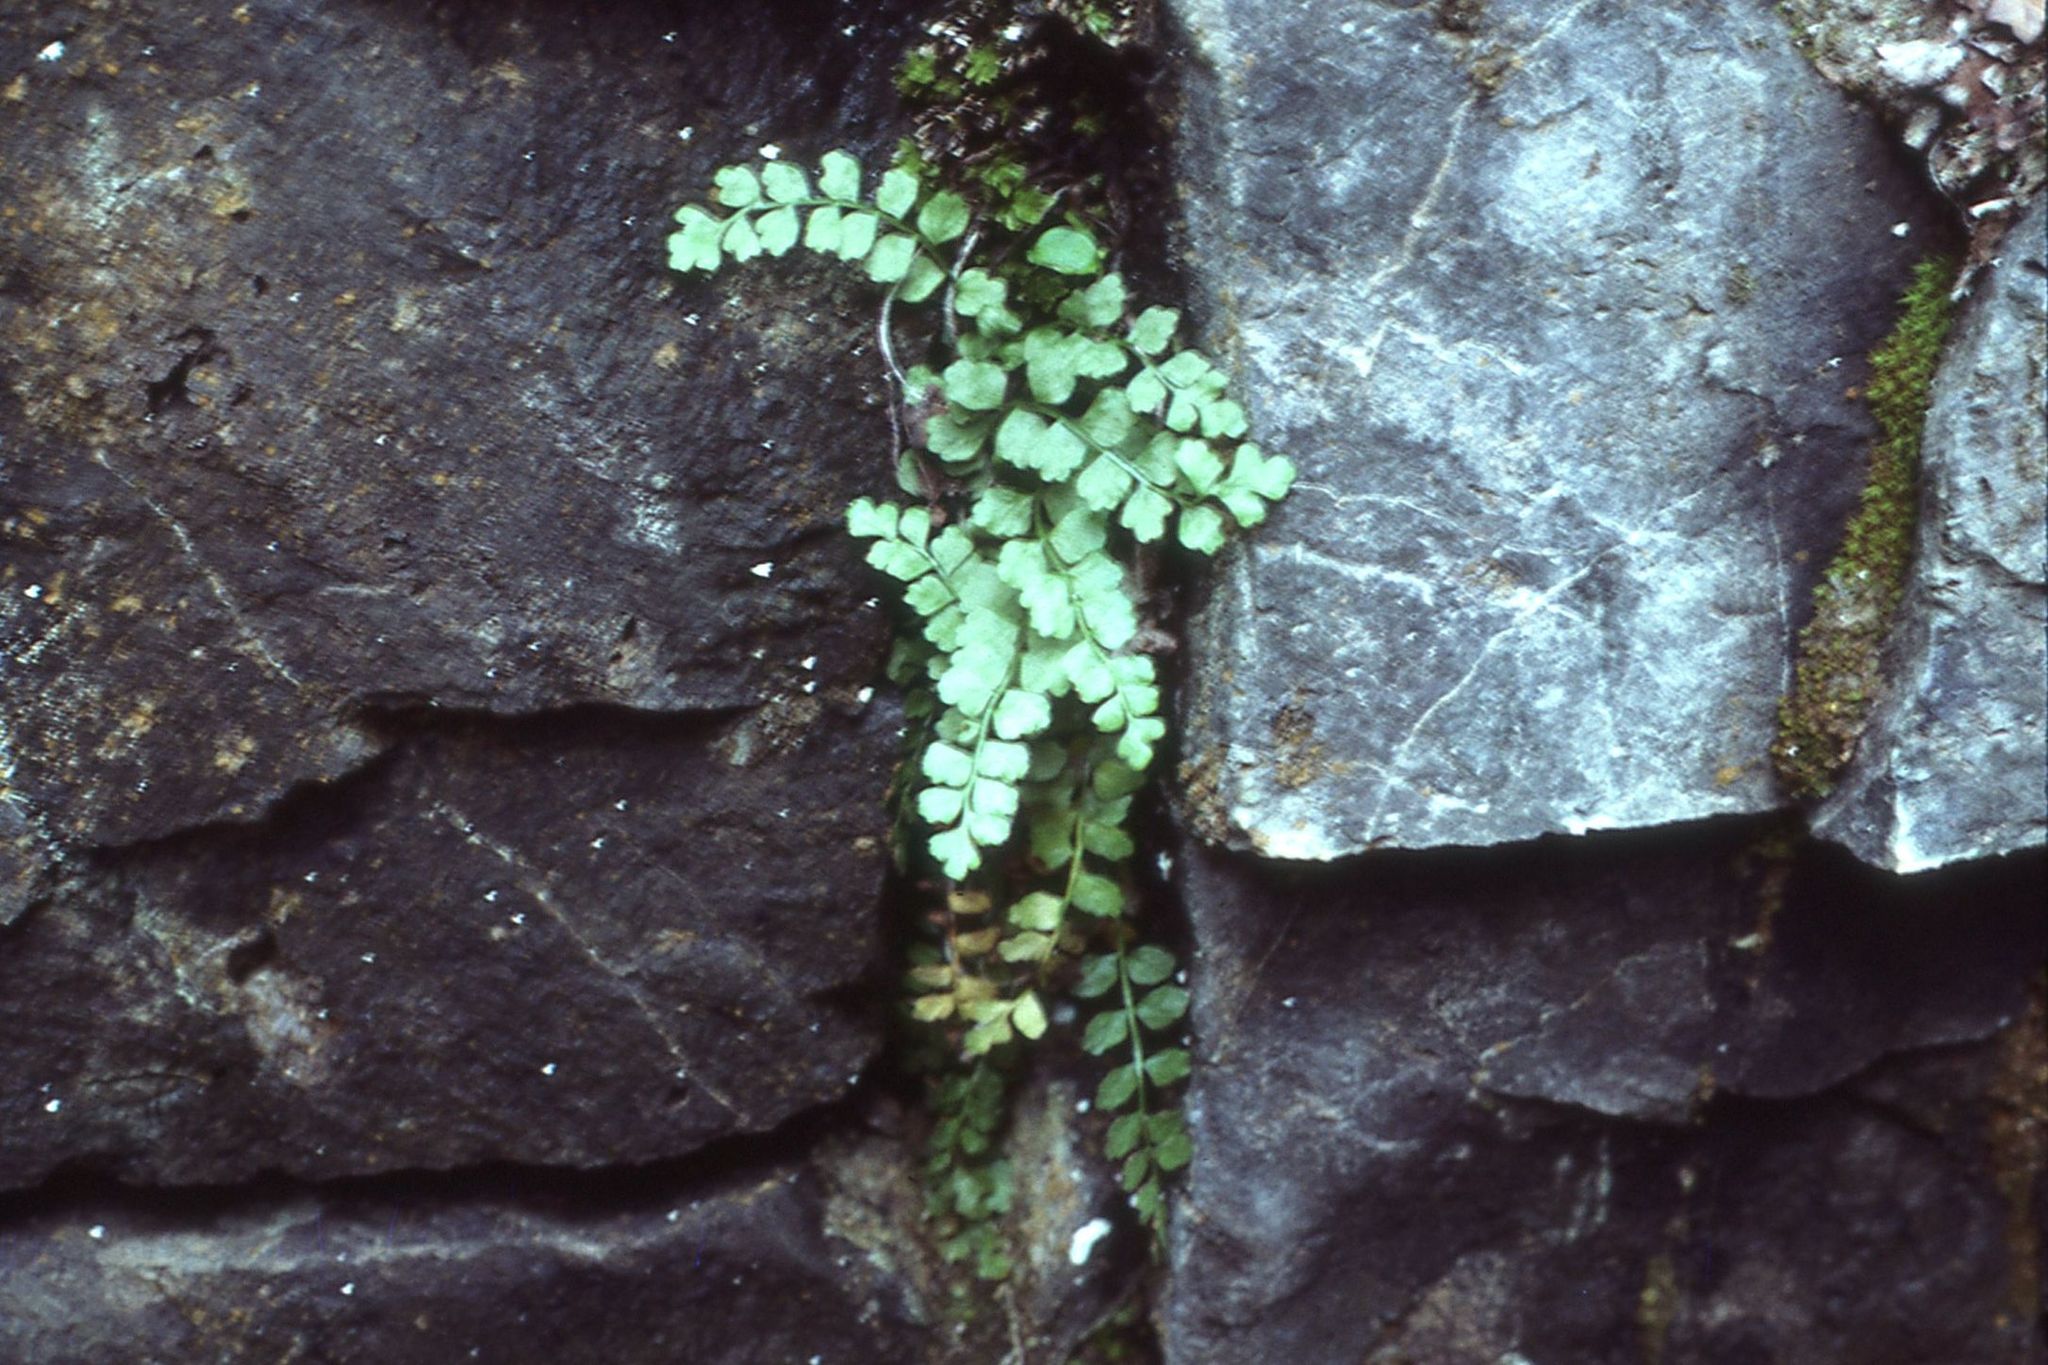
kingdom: Plantae
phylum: Tracheophyta
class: Polypodiopsida
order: Polypodiales
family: Aspleniaceae
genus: Asplenium
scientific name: Asplenium viride
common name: Green spleenwort
